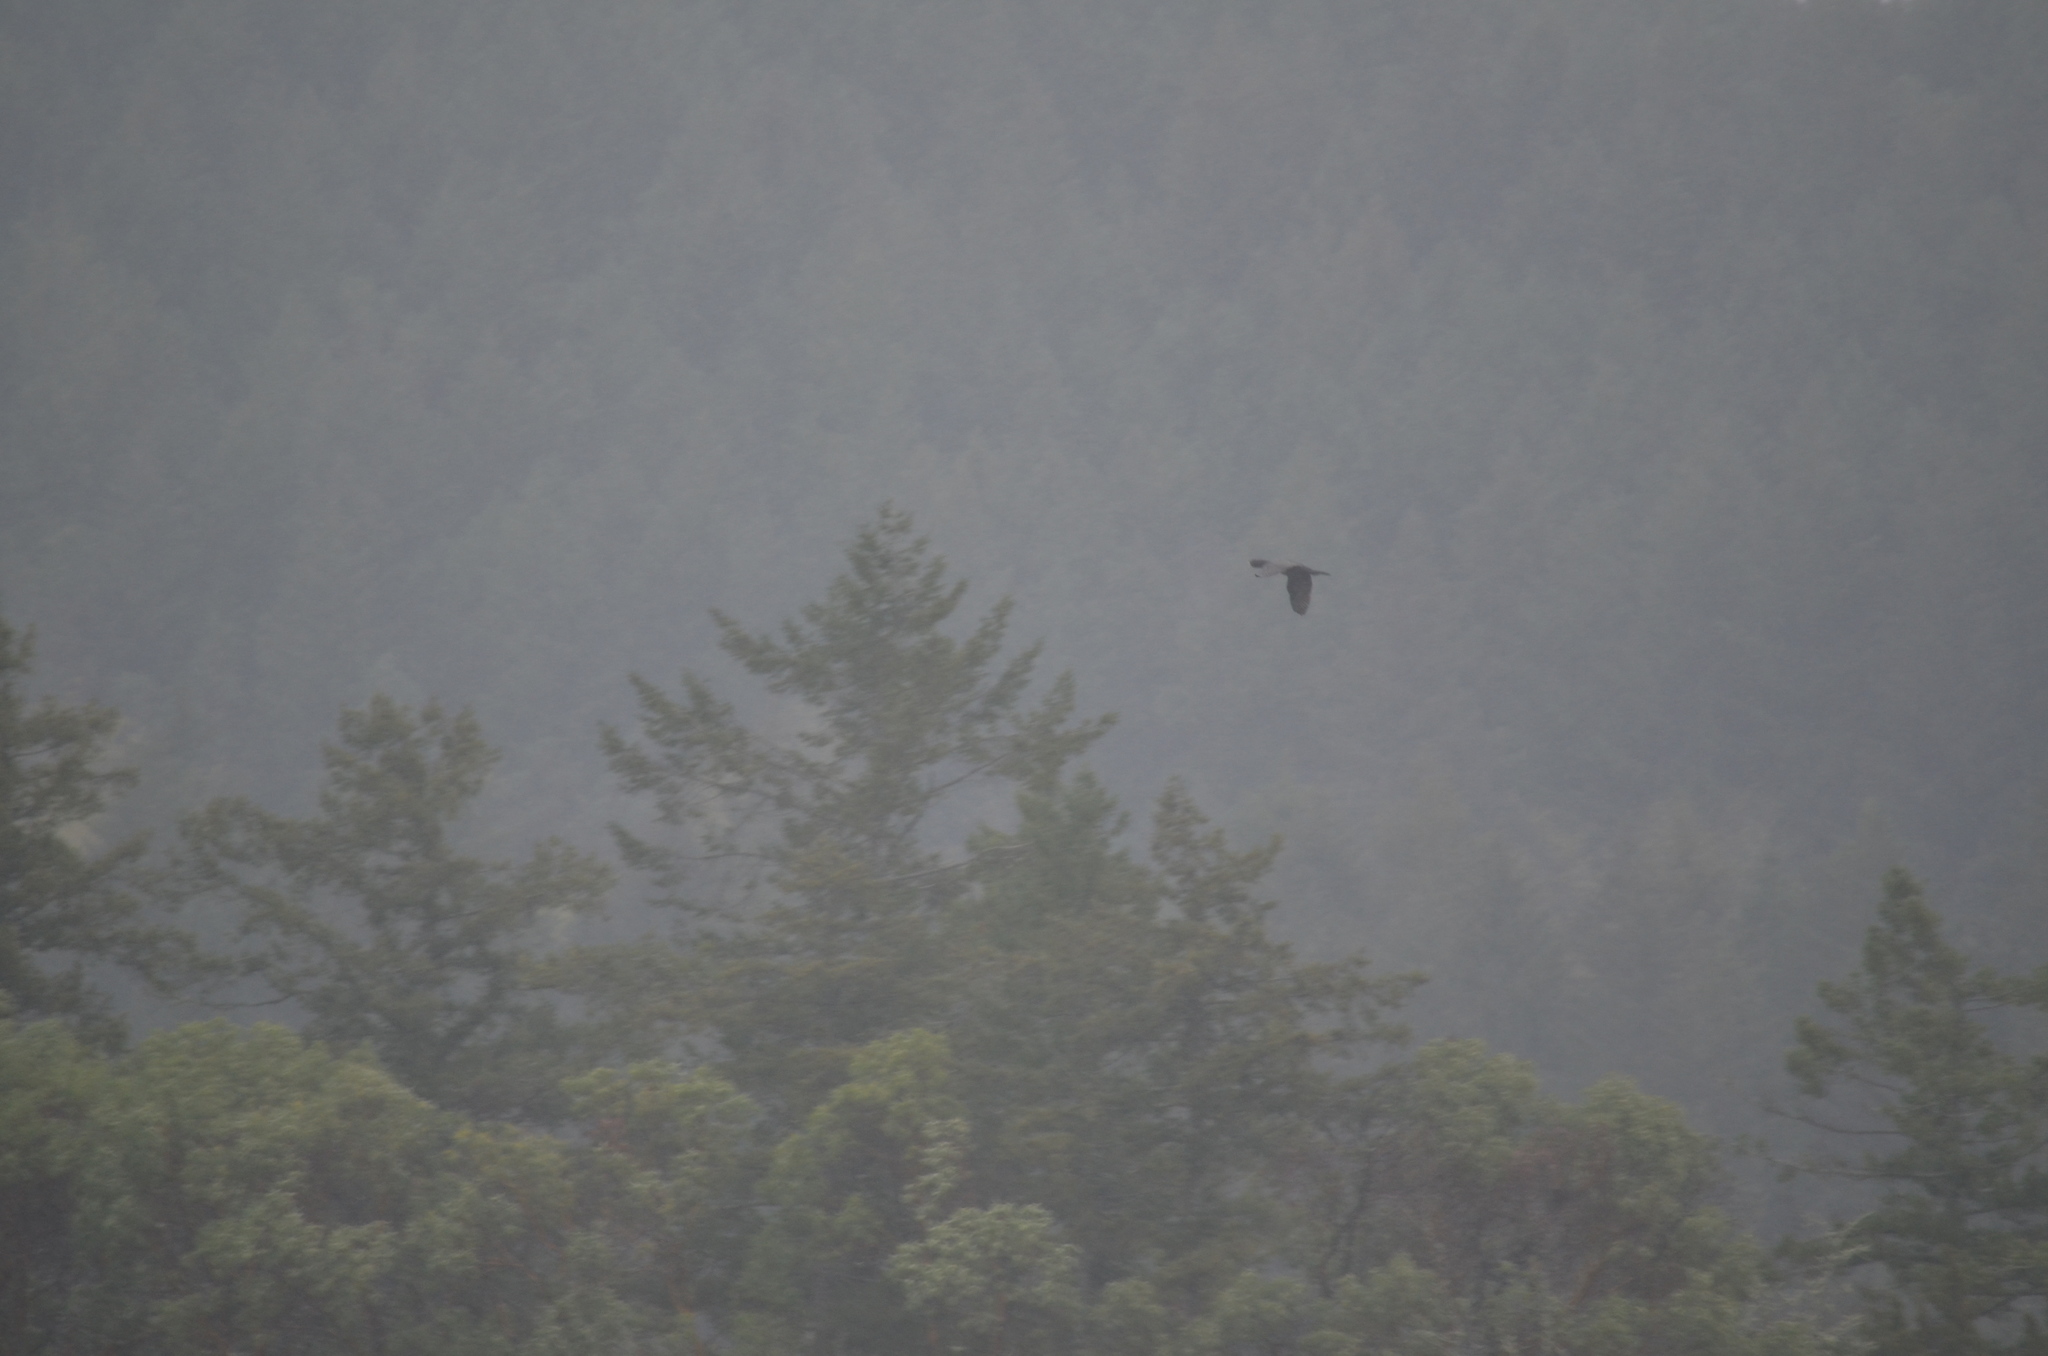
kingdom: Animalia
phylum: Chordata
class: Aves
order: Suliformes
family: Phalacrocoracidae
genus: Phalacrocorax
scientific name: Phalacrocorax pelagicus
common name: Pelagic cormorant
